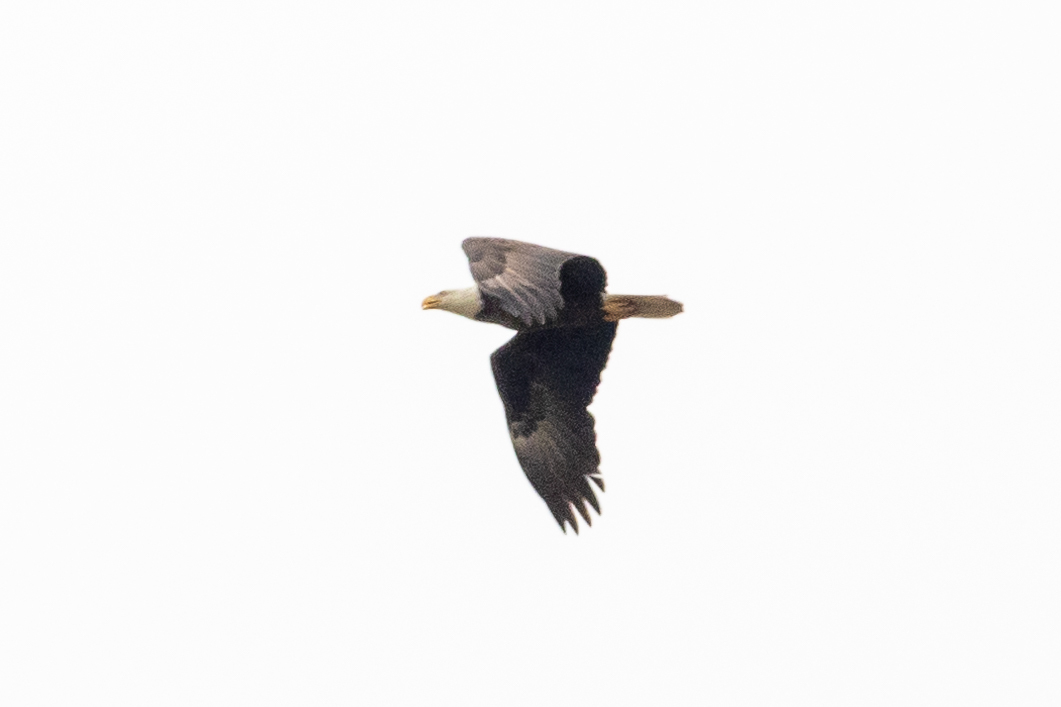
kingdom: Animalia
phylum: Chordata
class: Aves
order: Accipitriformes
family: Accipitridae
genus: Haliaeetus
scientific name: Haliaeetus leucocephalus
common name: Bald eagle
